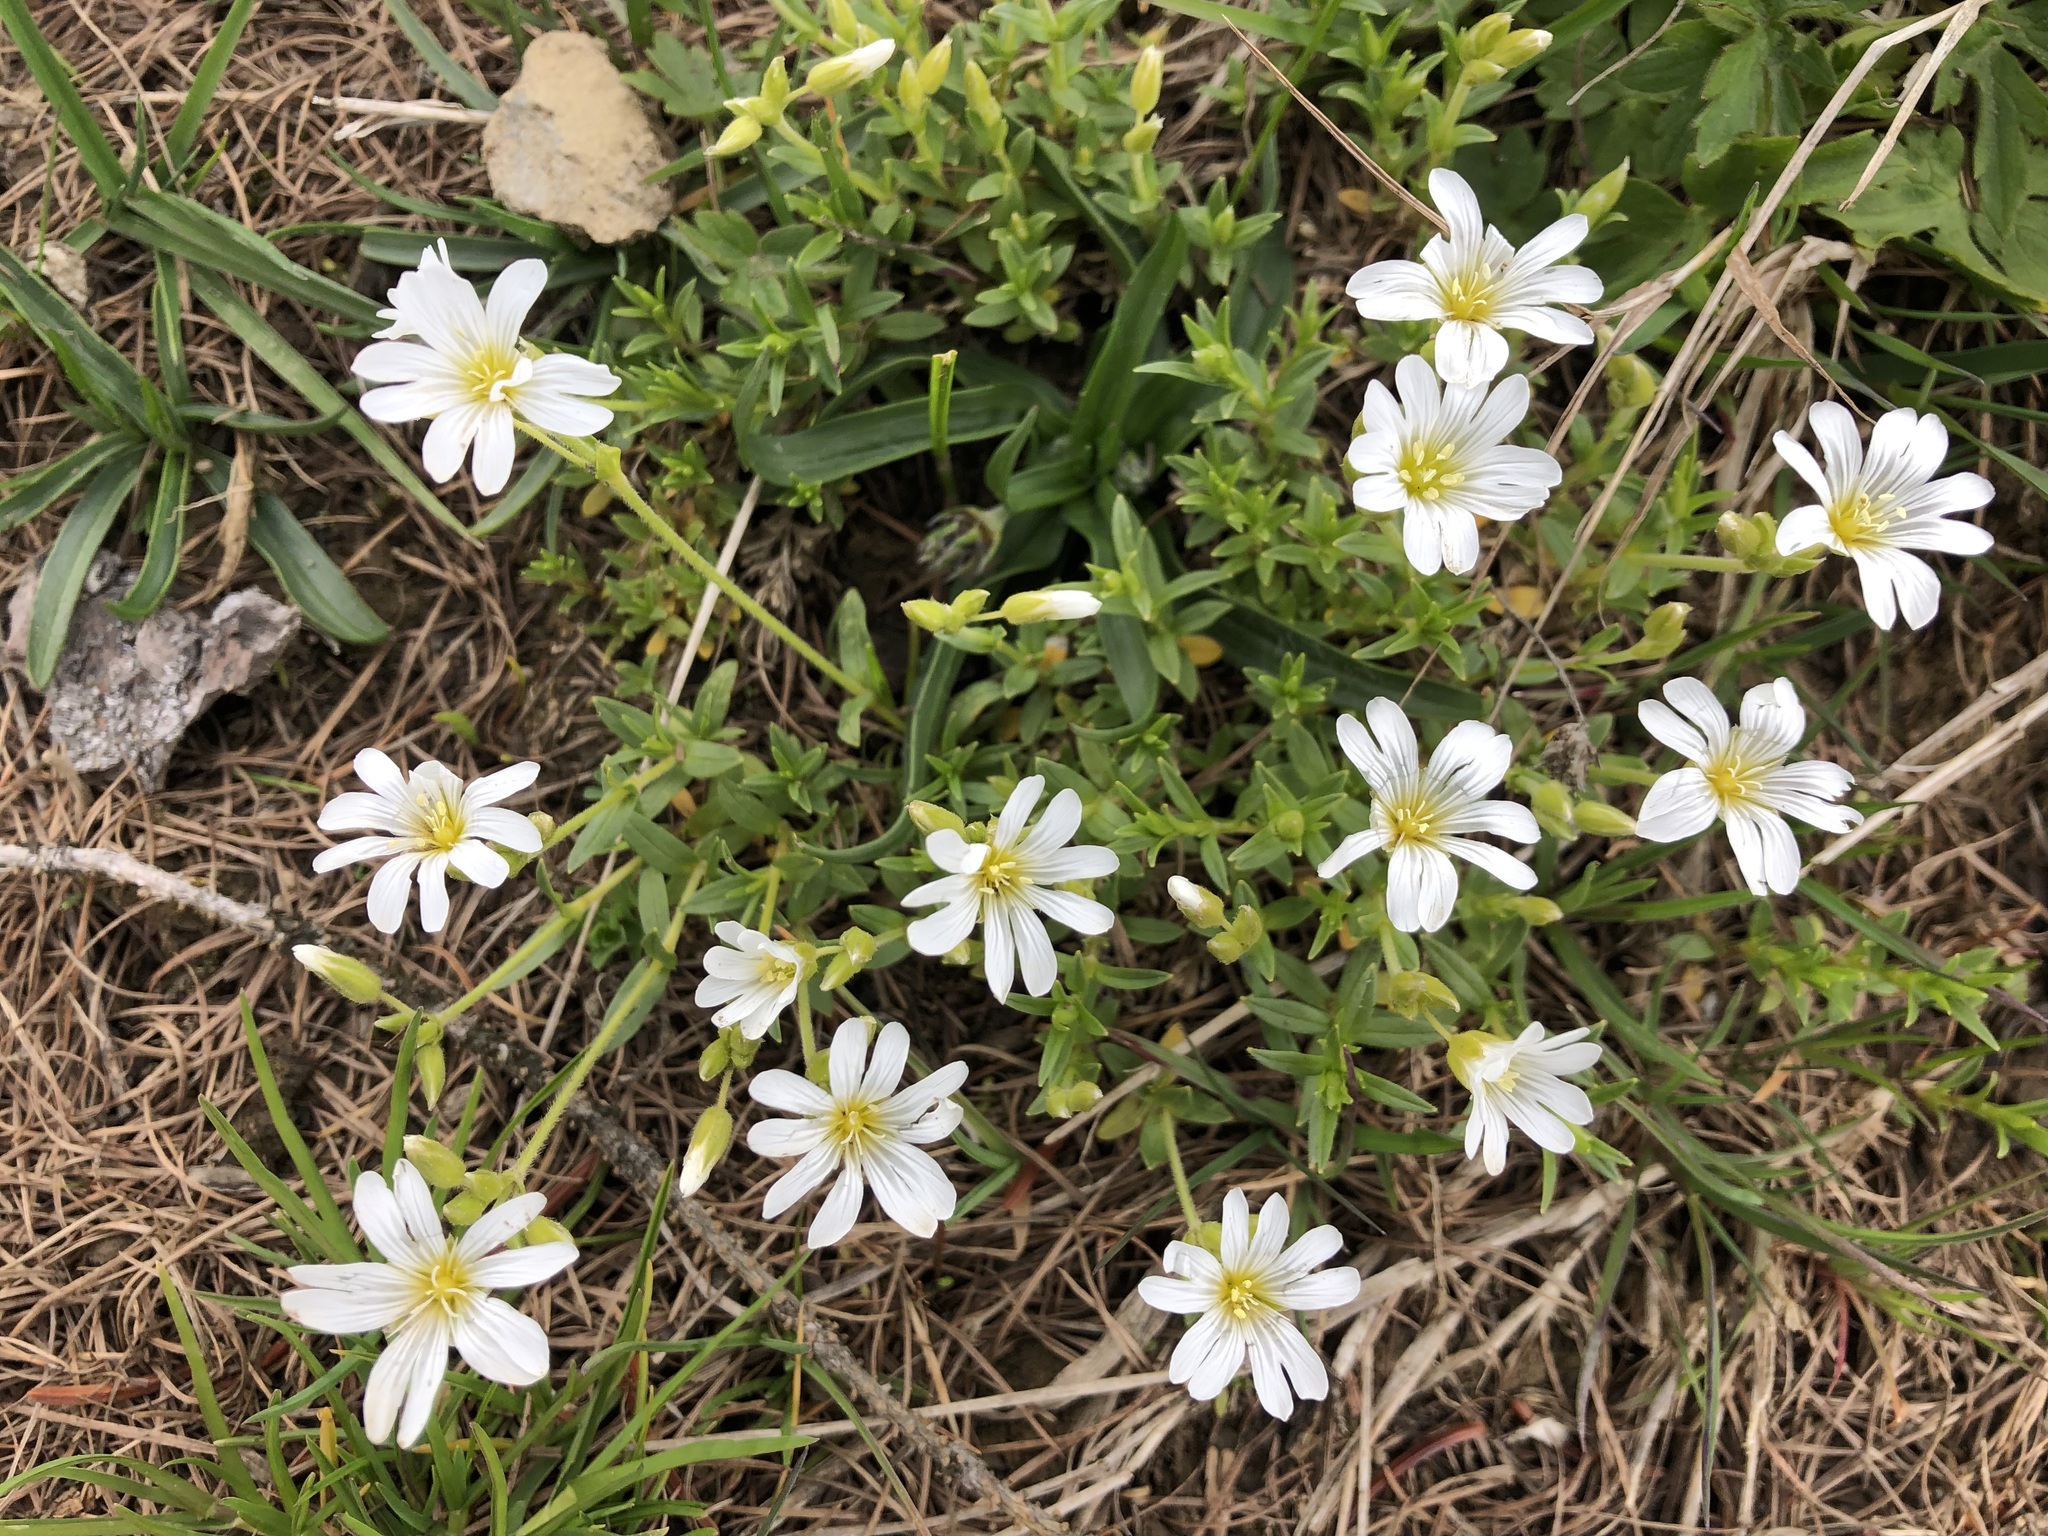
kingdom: Plantae
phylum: Tracheophyta
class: Magnoliopsida
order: Caryophyllales
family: Caryophyllaceae
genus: Cerastium
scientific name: Cerastium arvense
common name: Field mouse-ear
